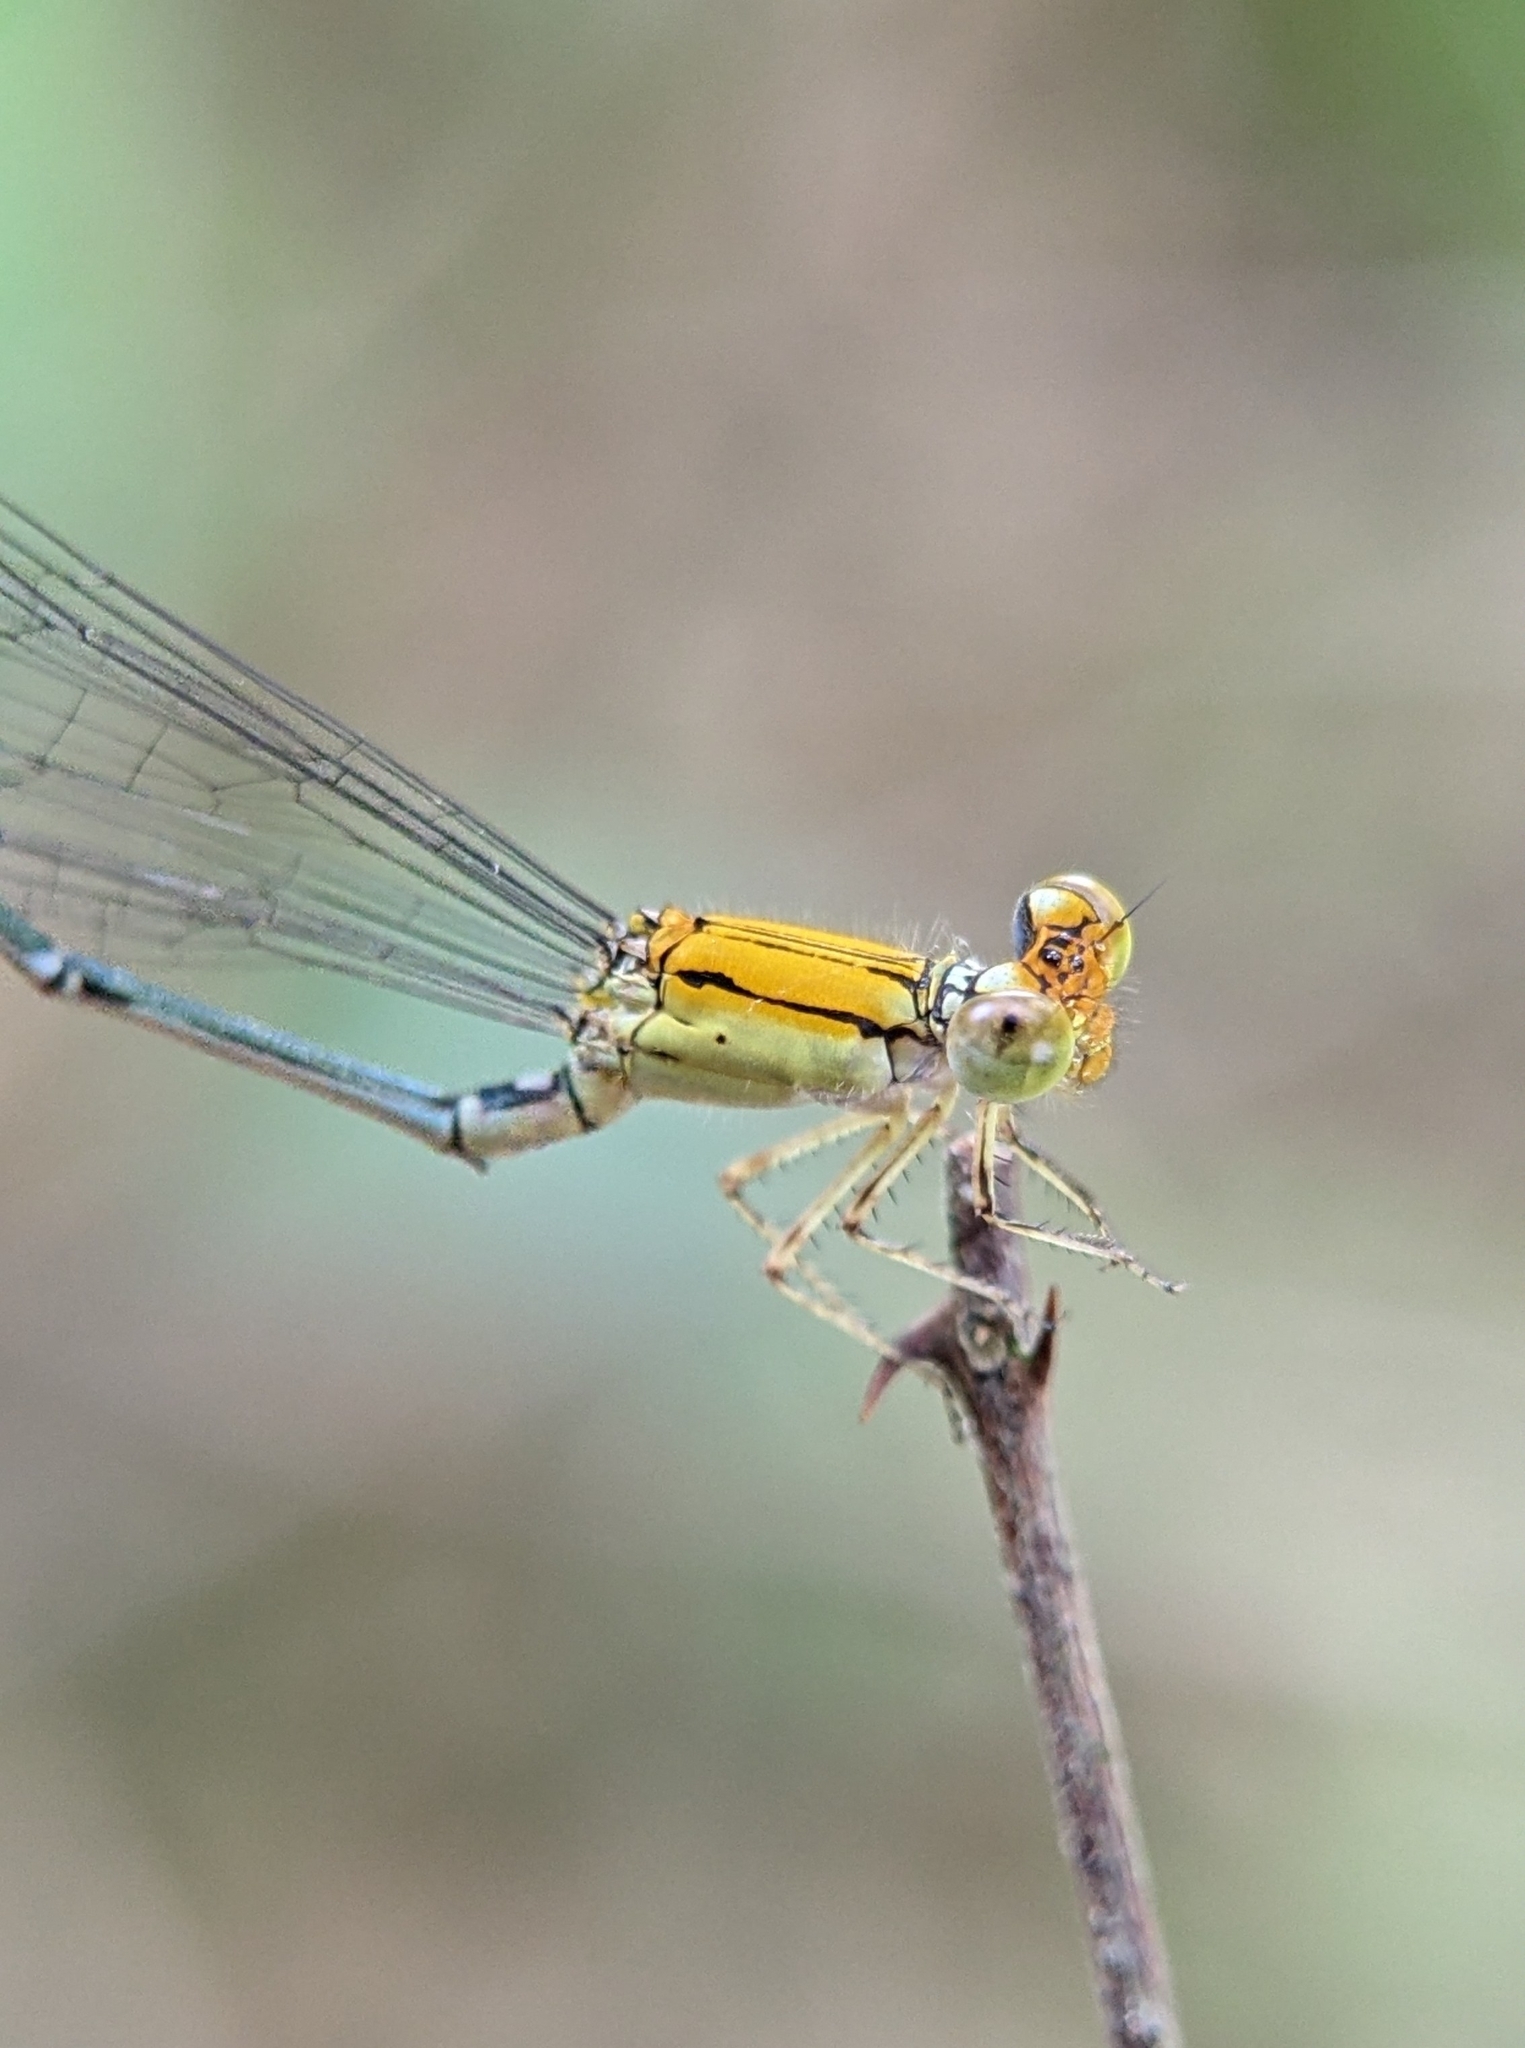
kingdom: Animalia
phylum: Arthropoda
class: Insecta
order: Odonata
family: Coenagrionidae
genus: Pseudagrion
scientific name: Pseudagrion rubriceps
